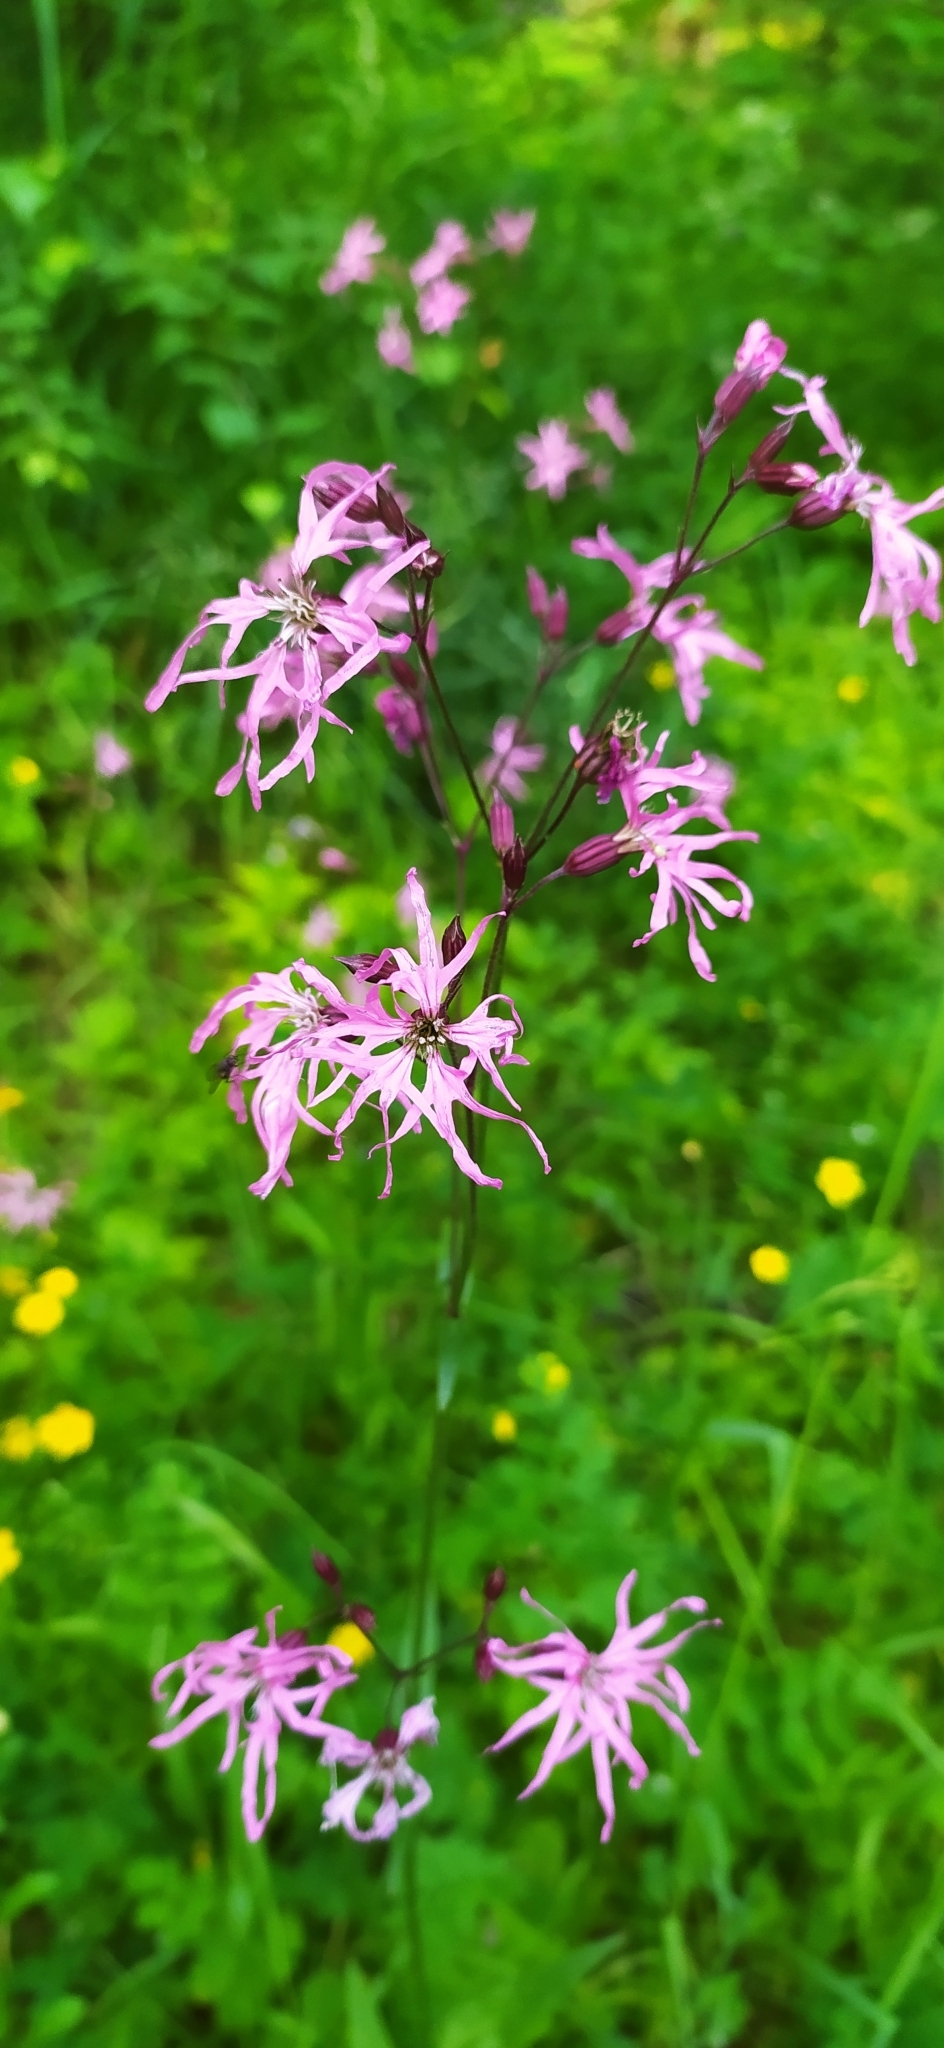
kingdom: Plantae
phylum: Tracheophyta
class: Magnoliopsida
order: Caryophyllales
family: Caryophyllaceae
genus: Silene
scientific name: Silene flos-cuculi
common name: Ragged-robin
